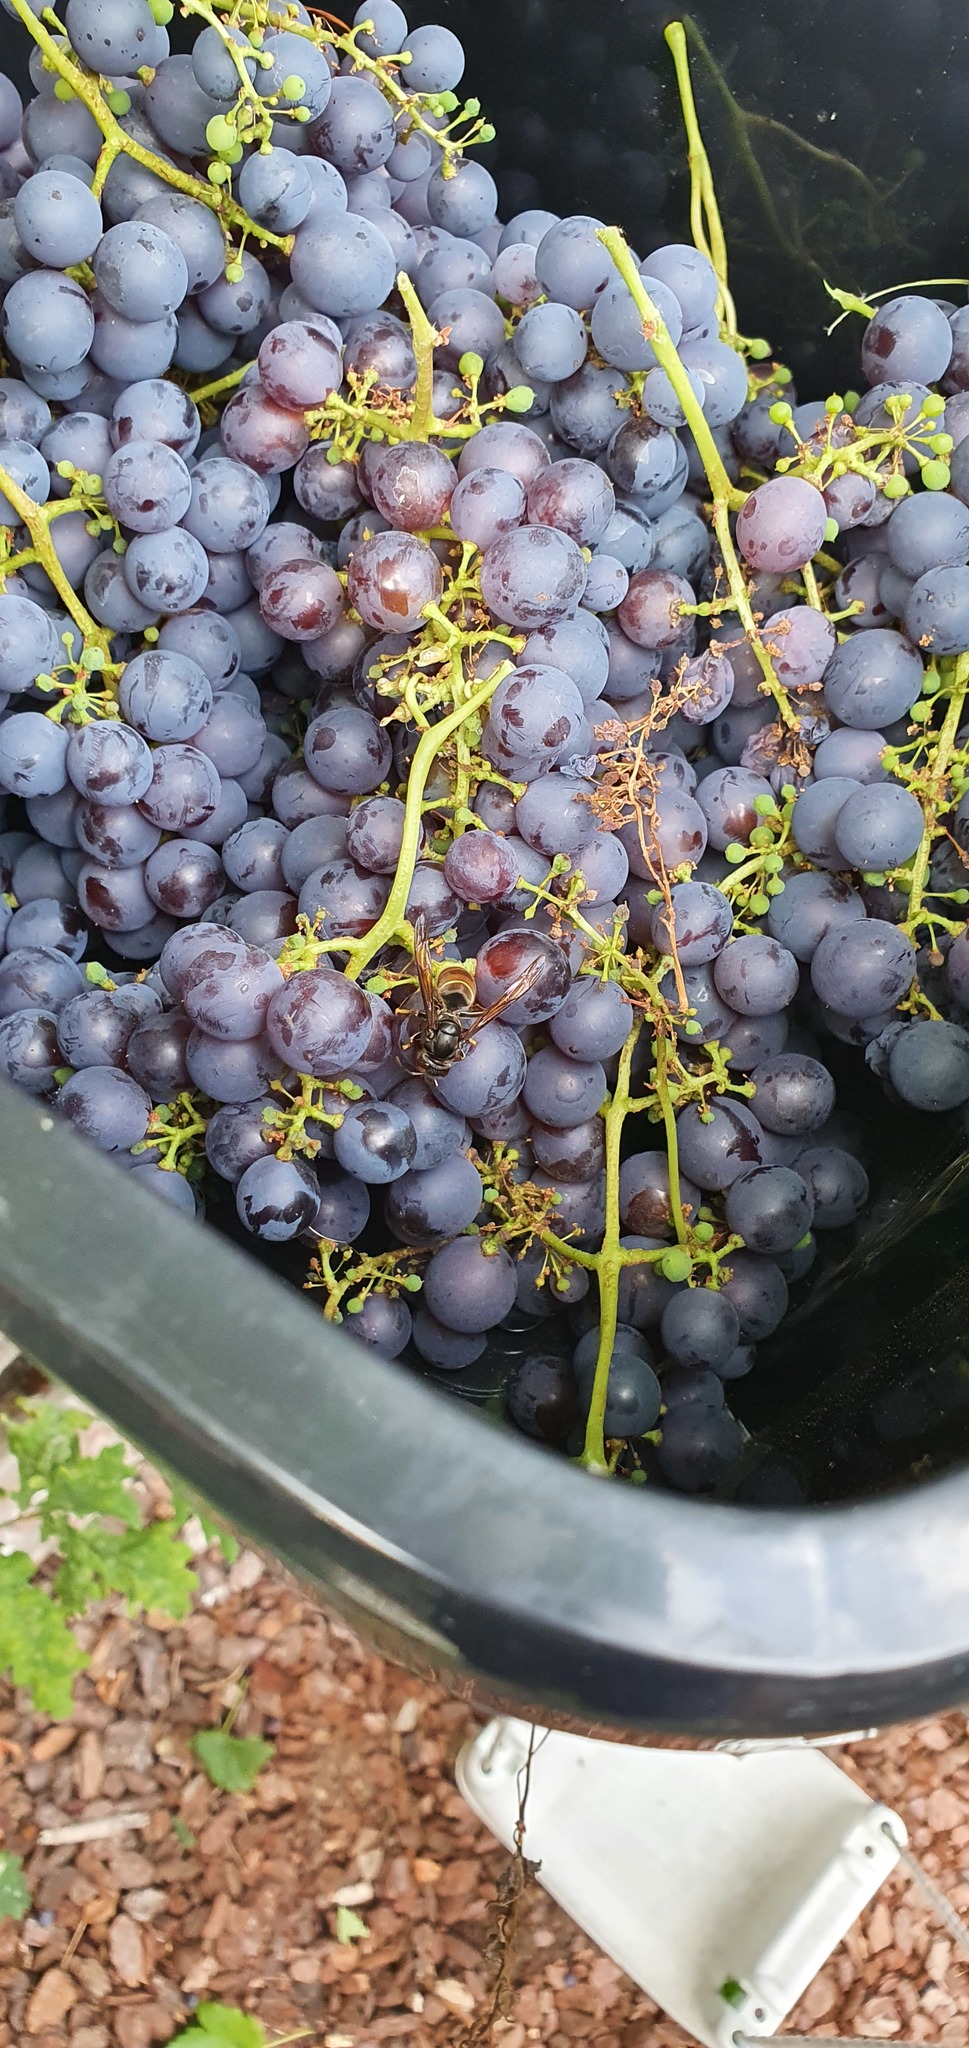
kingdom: Animalia
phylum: Arthropoda
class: Insecta
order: Hymenoptera
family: Vespidae
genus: Vespa
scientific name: Vespa velutina
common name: Asian hornet
